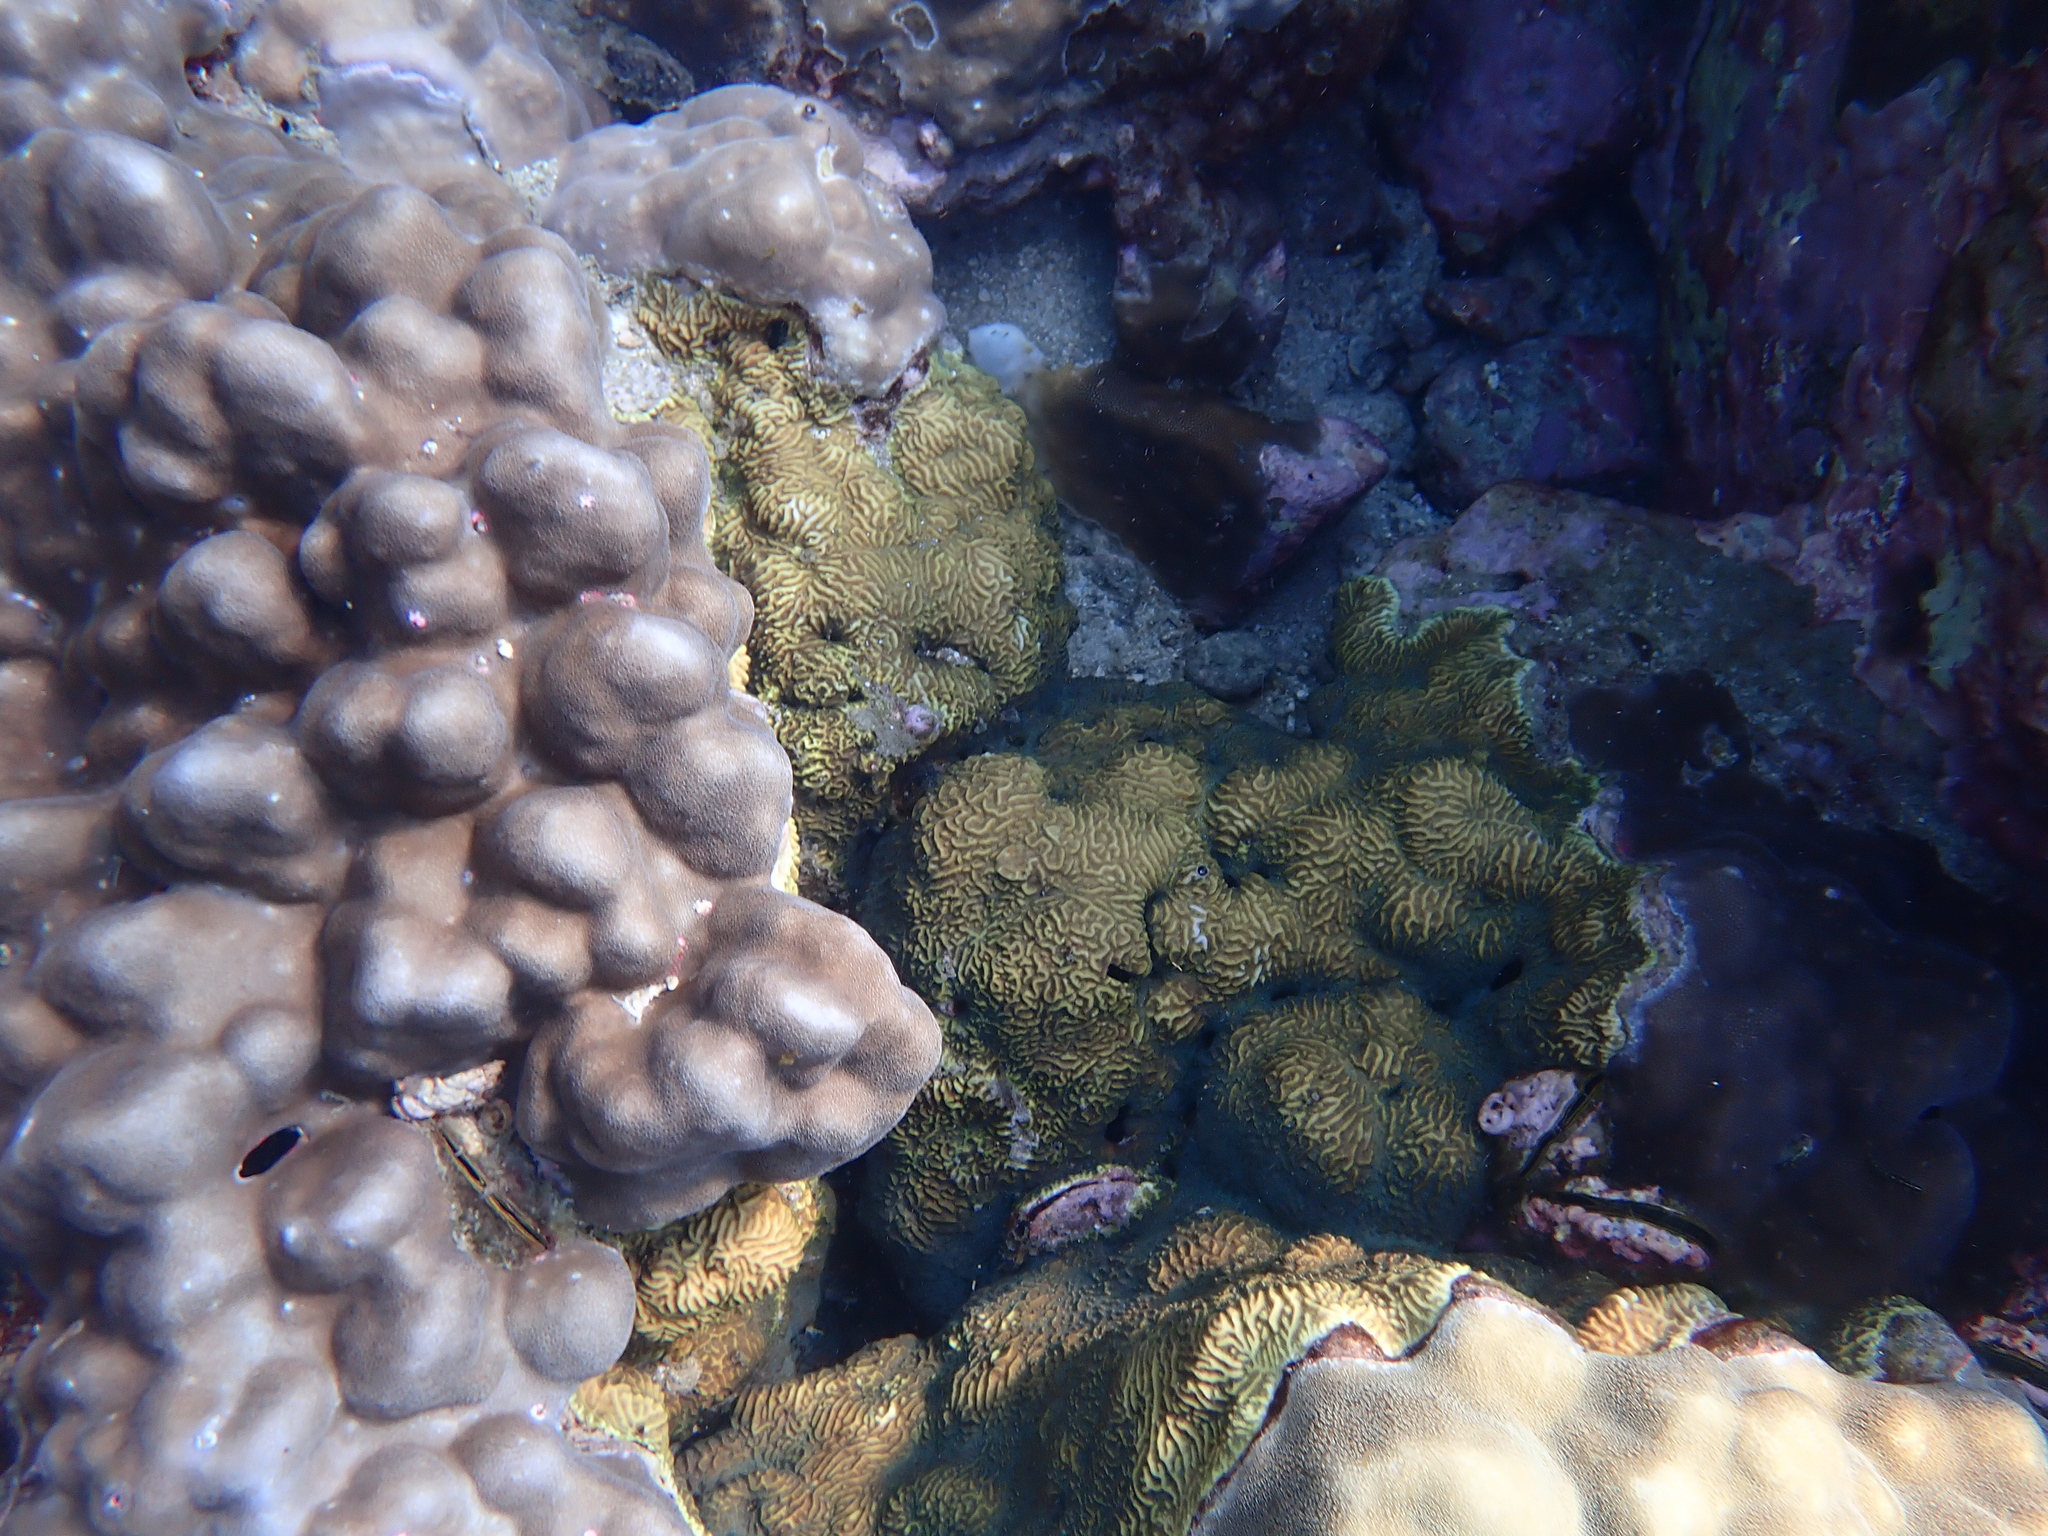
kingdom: Animalia
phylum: Cnidaria
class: Anthozoa
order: Scleractinia
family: Agariciidae
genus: Pavona
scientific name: Pavona varians
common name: Leaf coral
